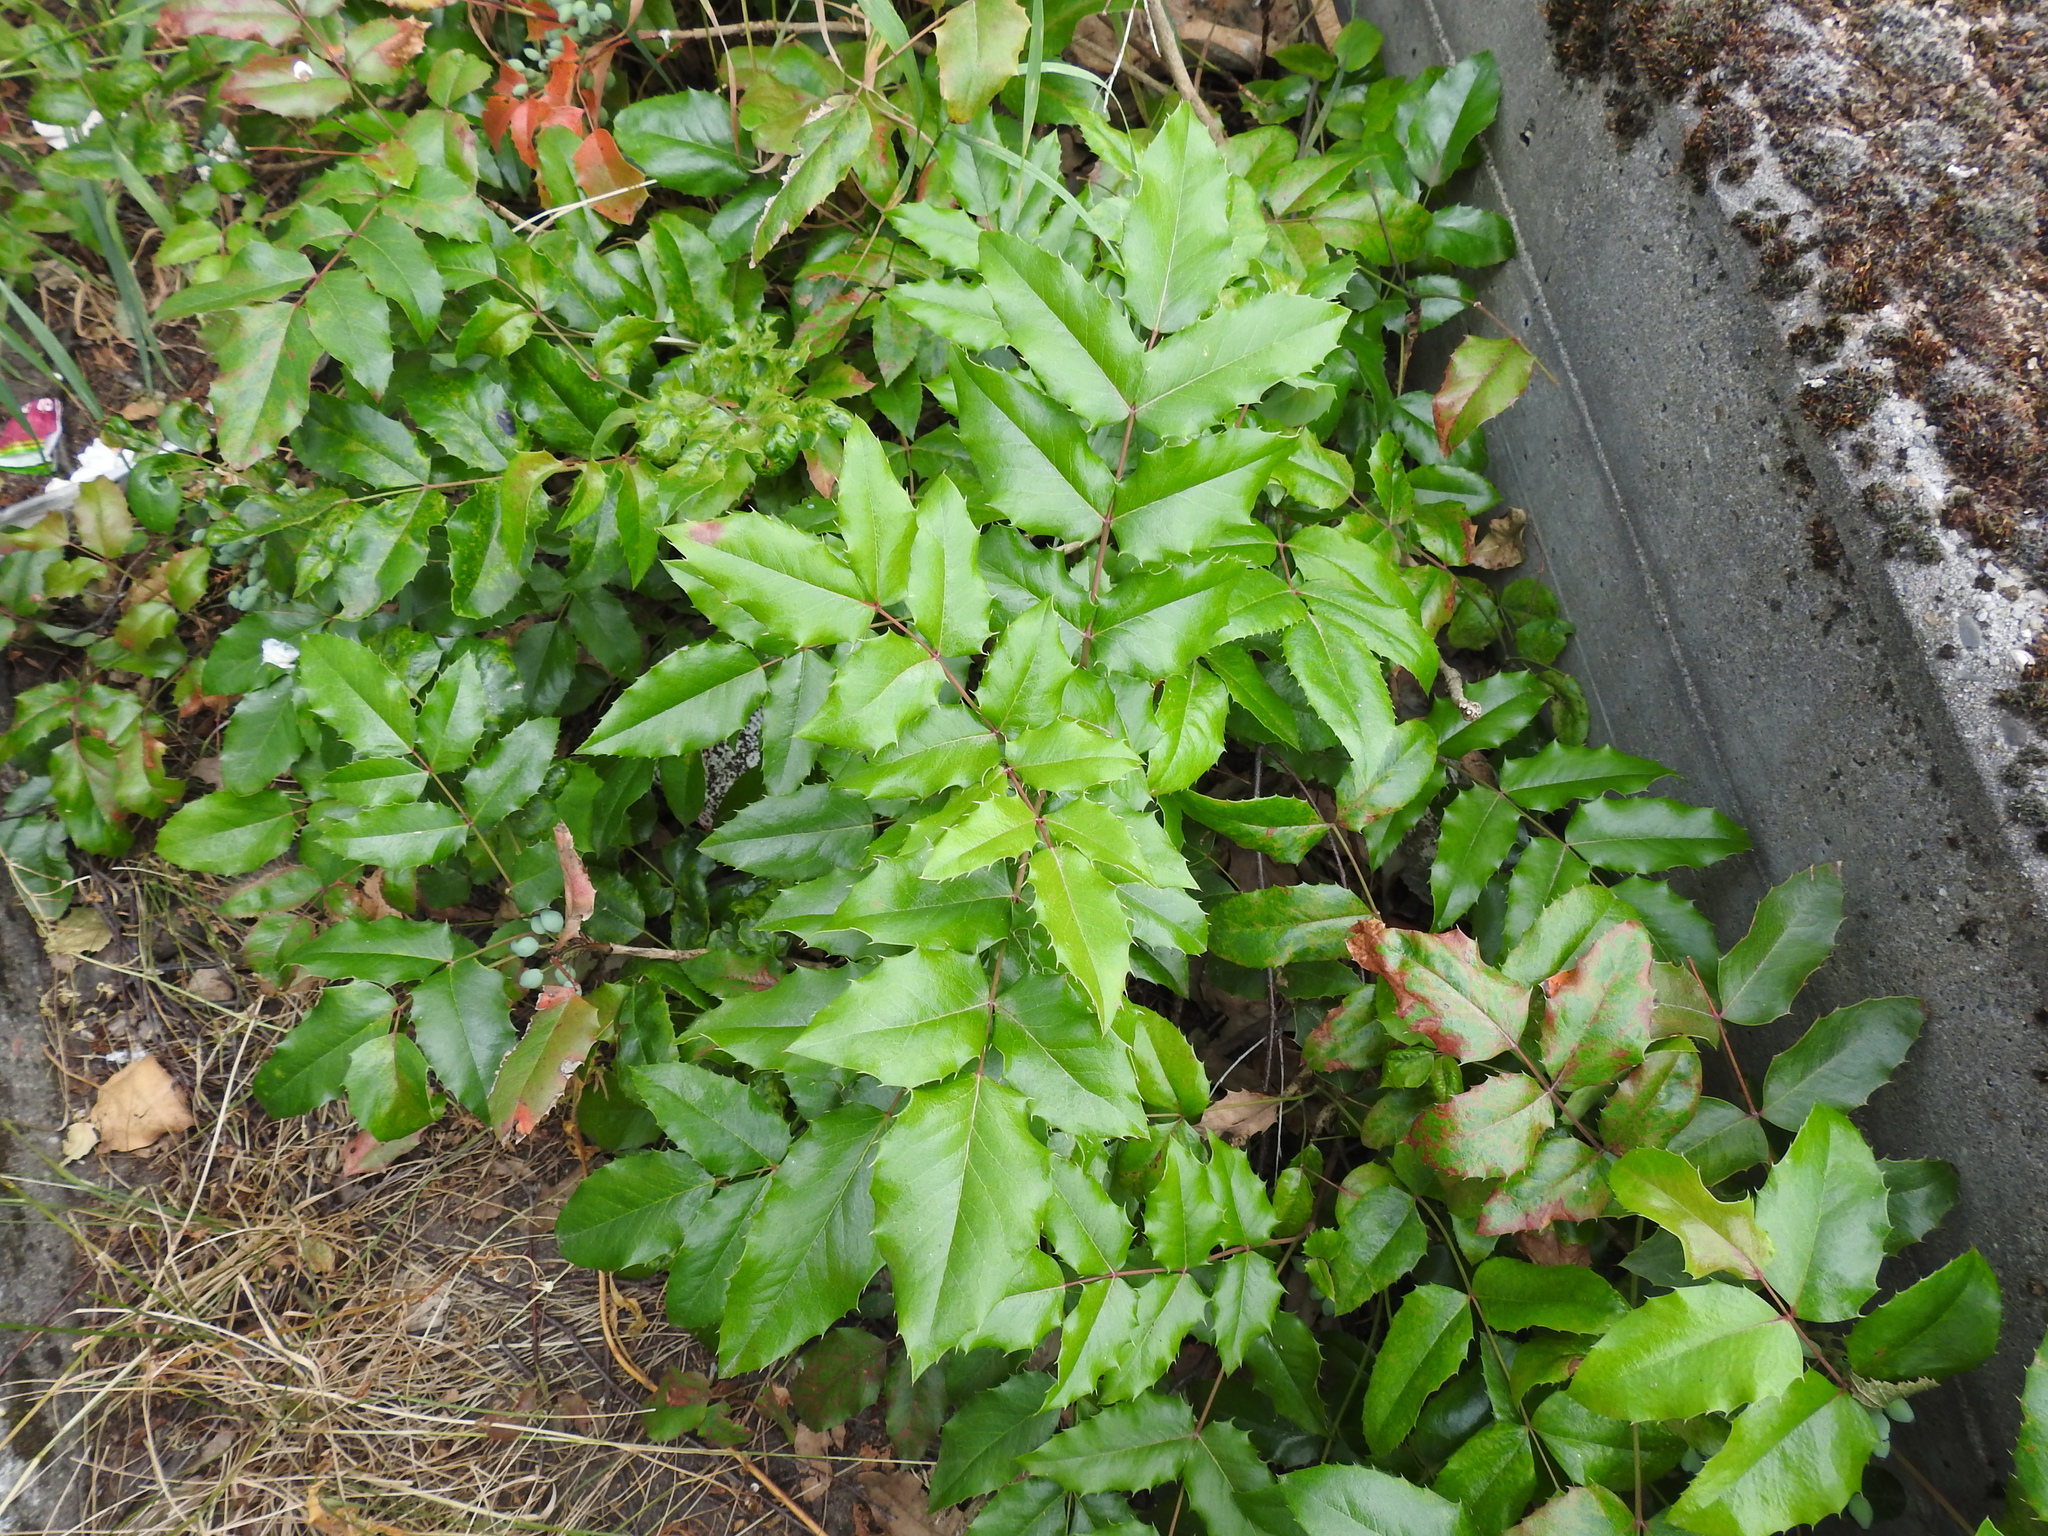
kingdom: Plantae
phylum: Tracheophyta
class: Magnoliopsida
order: Ranunculales
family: Berberidaceae
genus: Mahonia
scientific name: Mahonia aquifolium
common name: Oregon-grape
